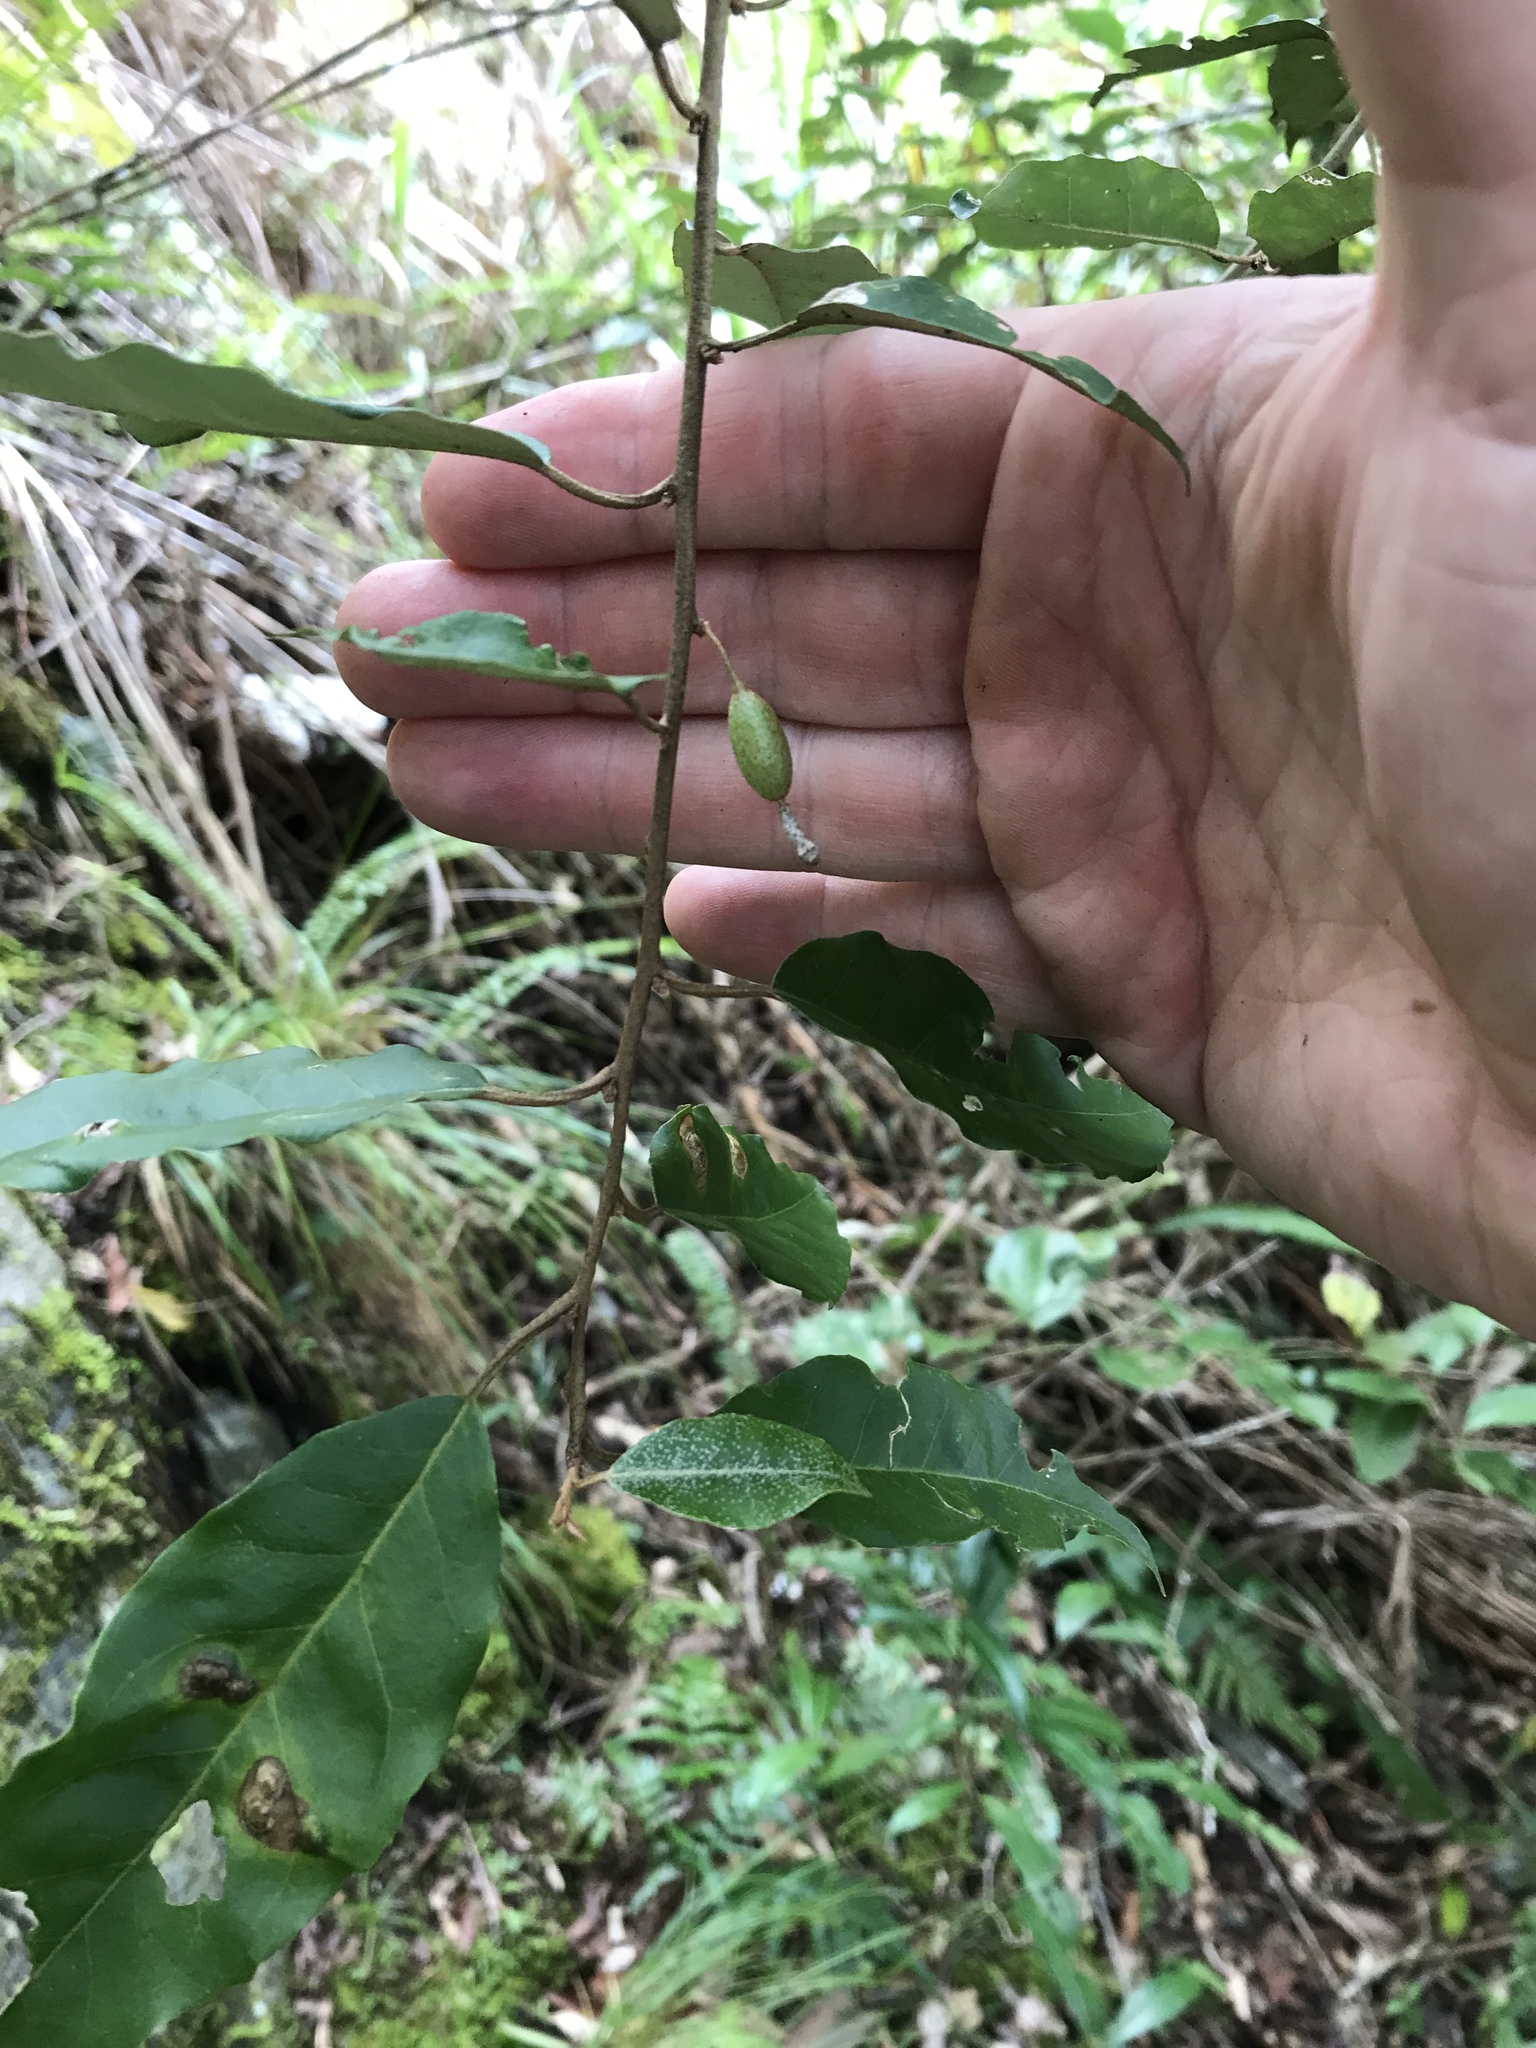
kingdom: Plantae
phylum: Tracheophyta
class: Magnoliopsida
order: Rosales
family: Elaeagnaceae
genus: Elaeagnus
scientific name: Elaeagnus glabra
